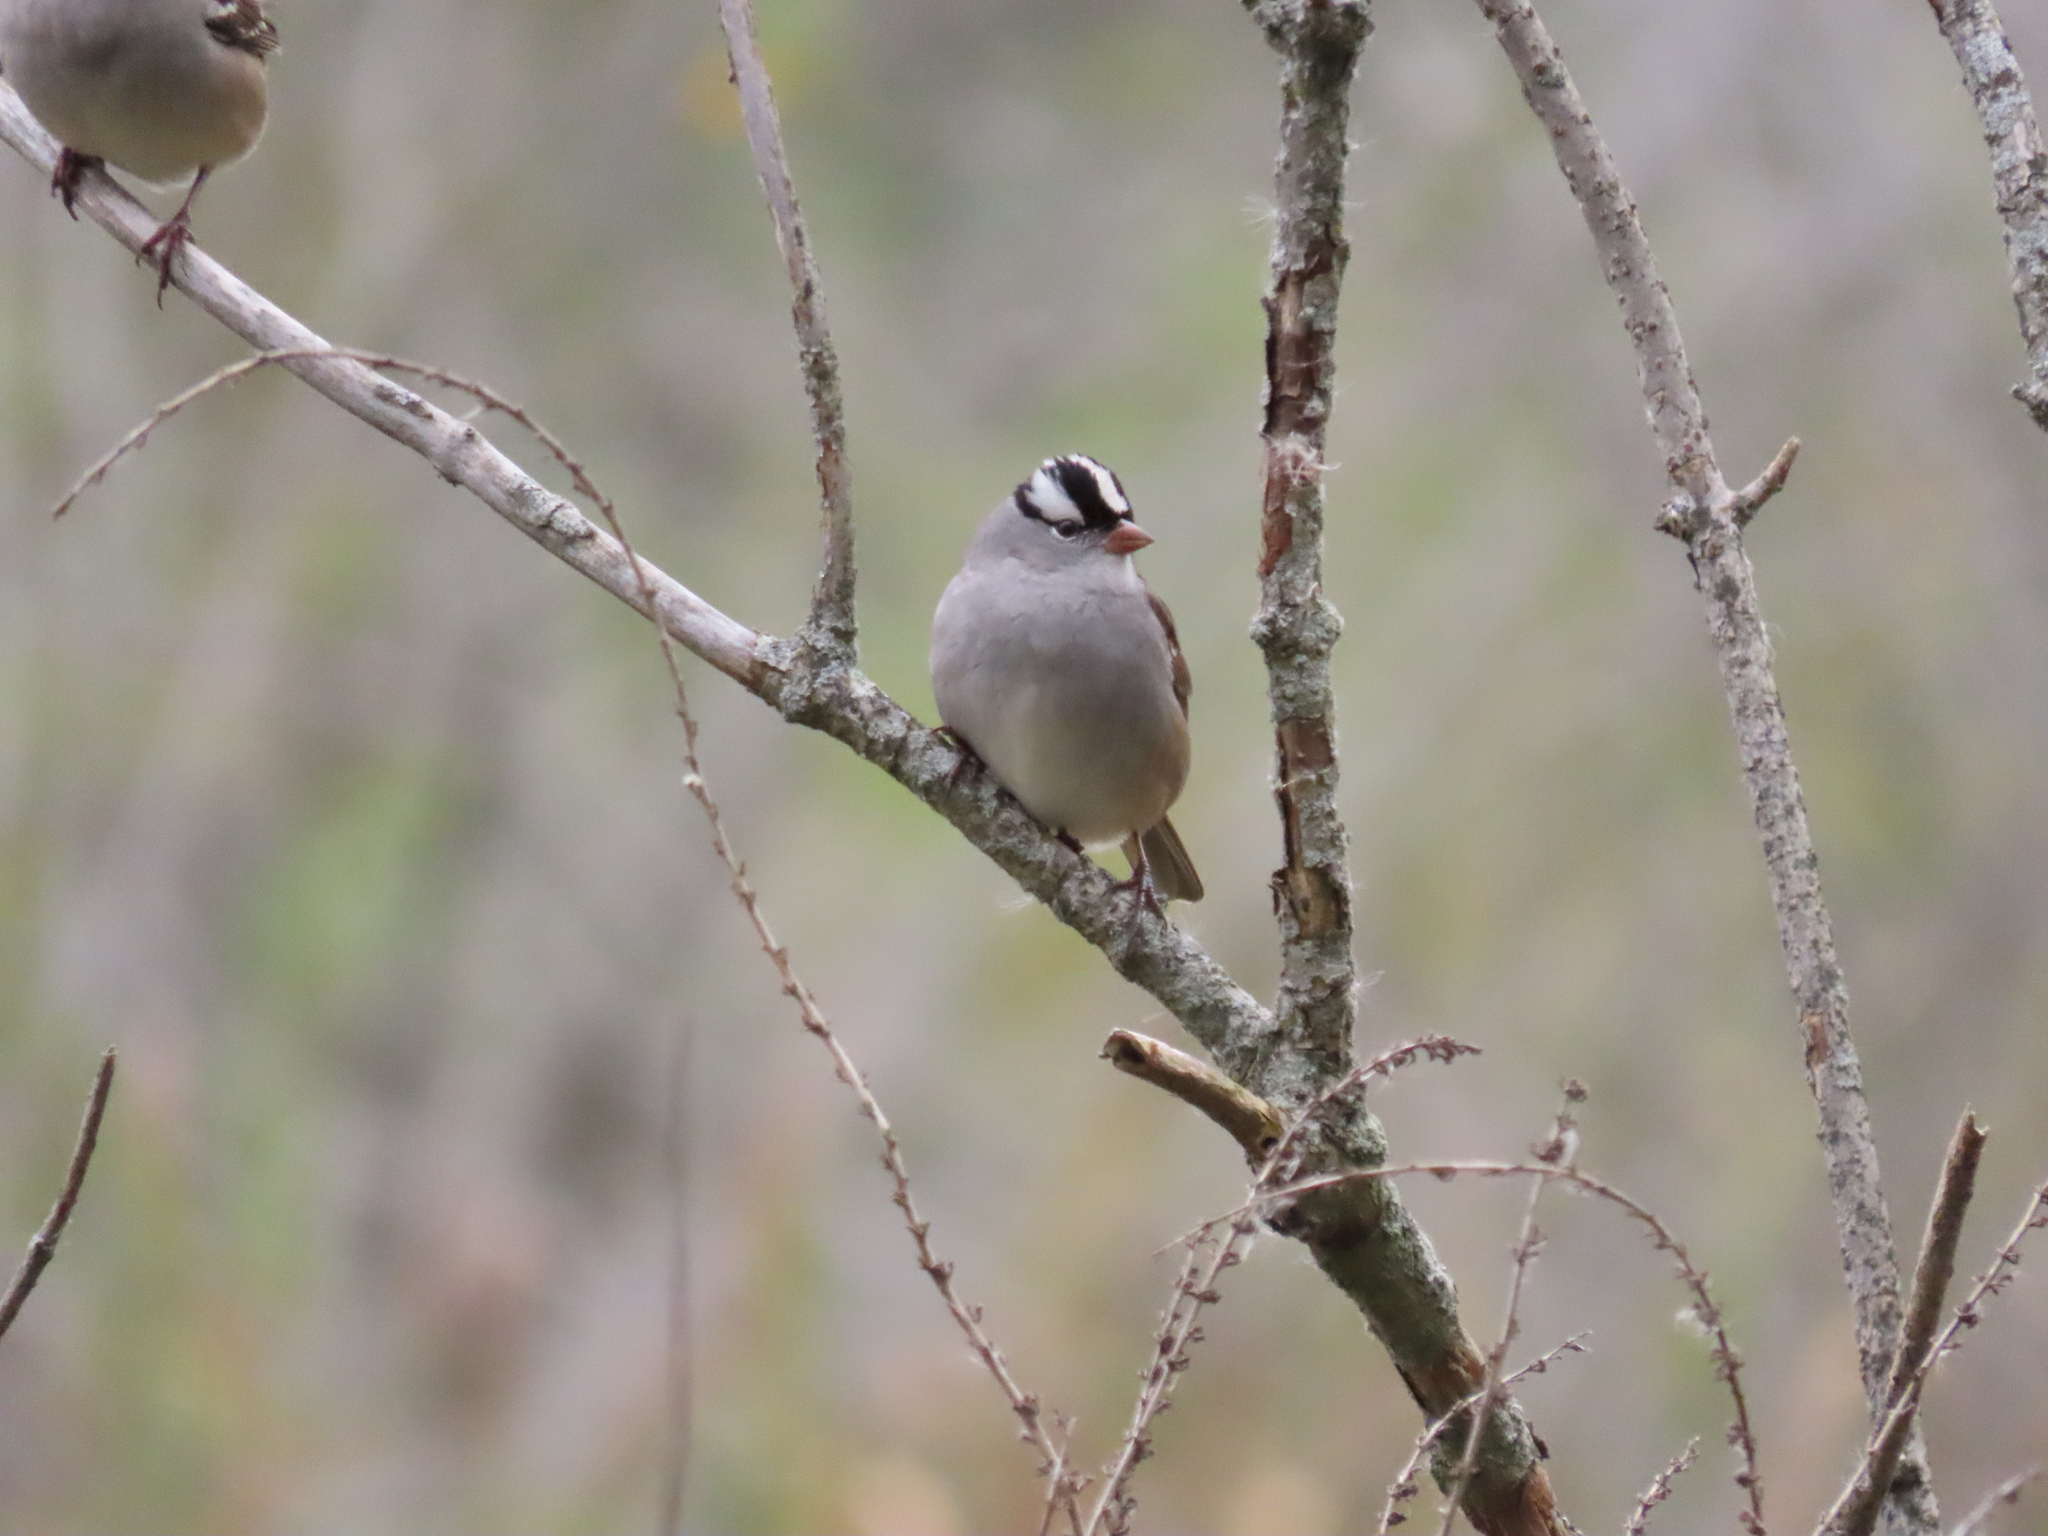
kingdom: Animalia
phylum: Chordata
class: Aves
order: Passeriformes
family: Passerellidae
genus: Zonotrichia
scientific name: Zonotrichia leucophrys
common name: White-crowned sparrow
